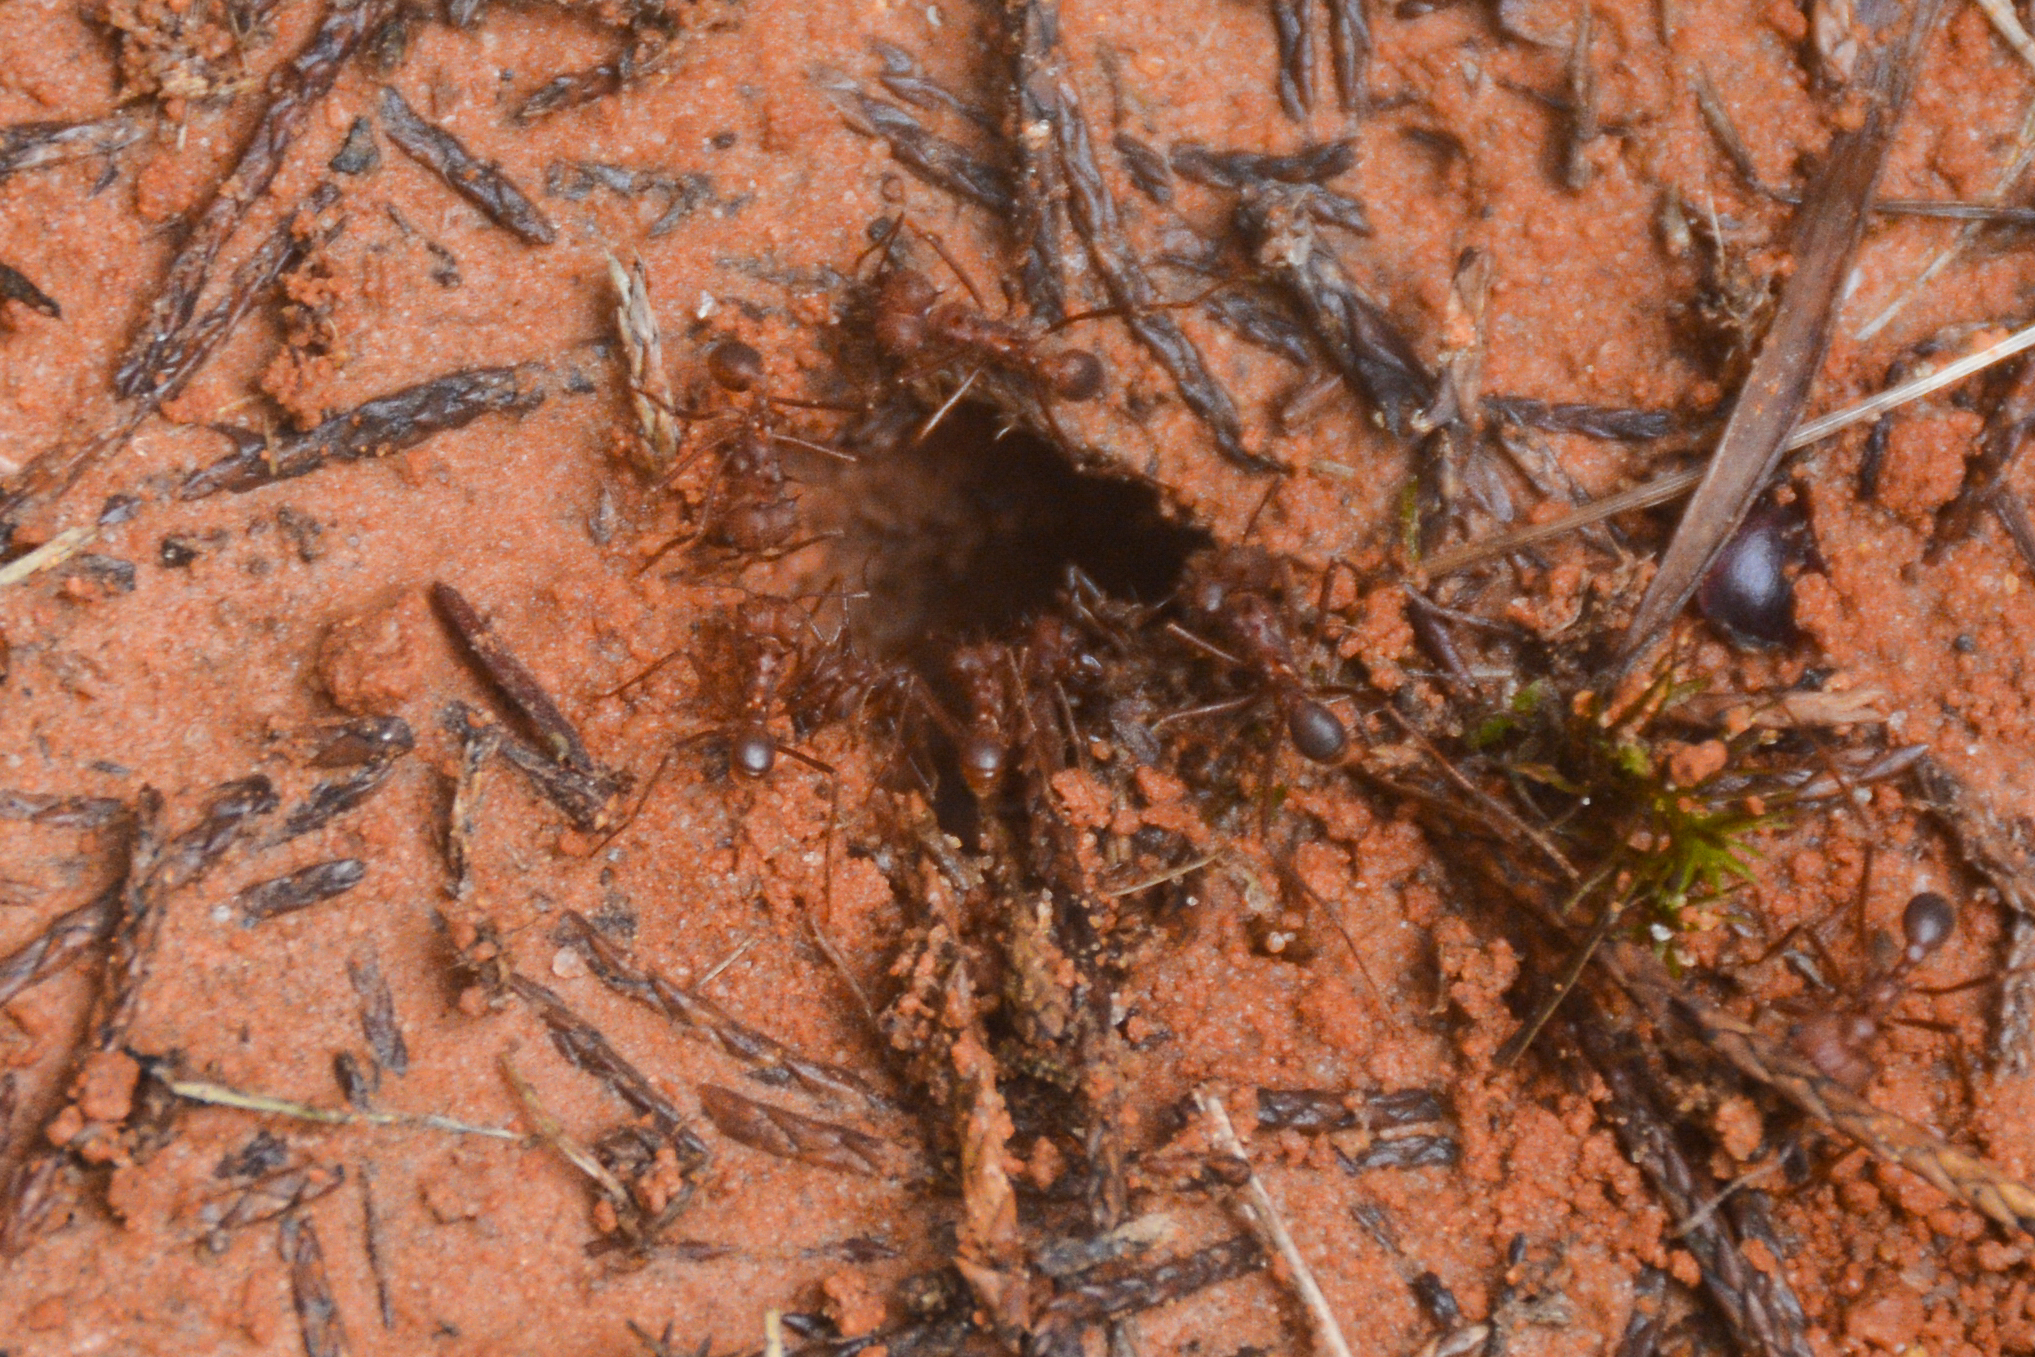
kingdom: Animalia
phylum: Arthropoda
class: Insecta
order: Hymenoptera
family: Formicidae
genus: Atta
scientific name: Atta texana
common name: Texas leafcutting ant
